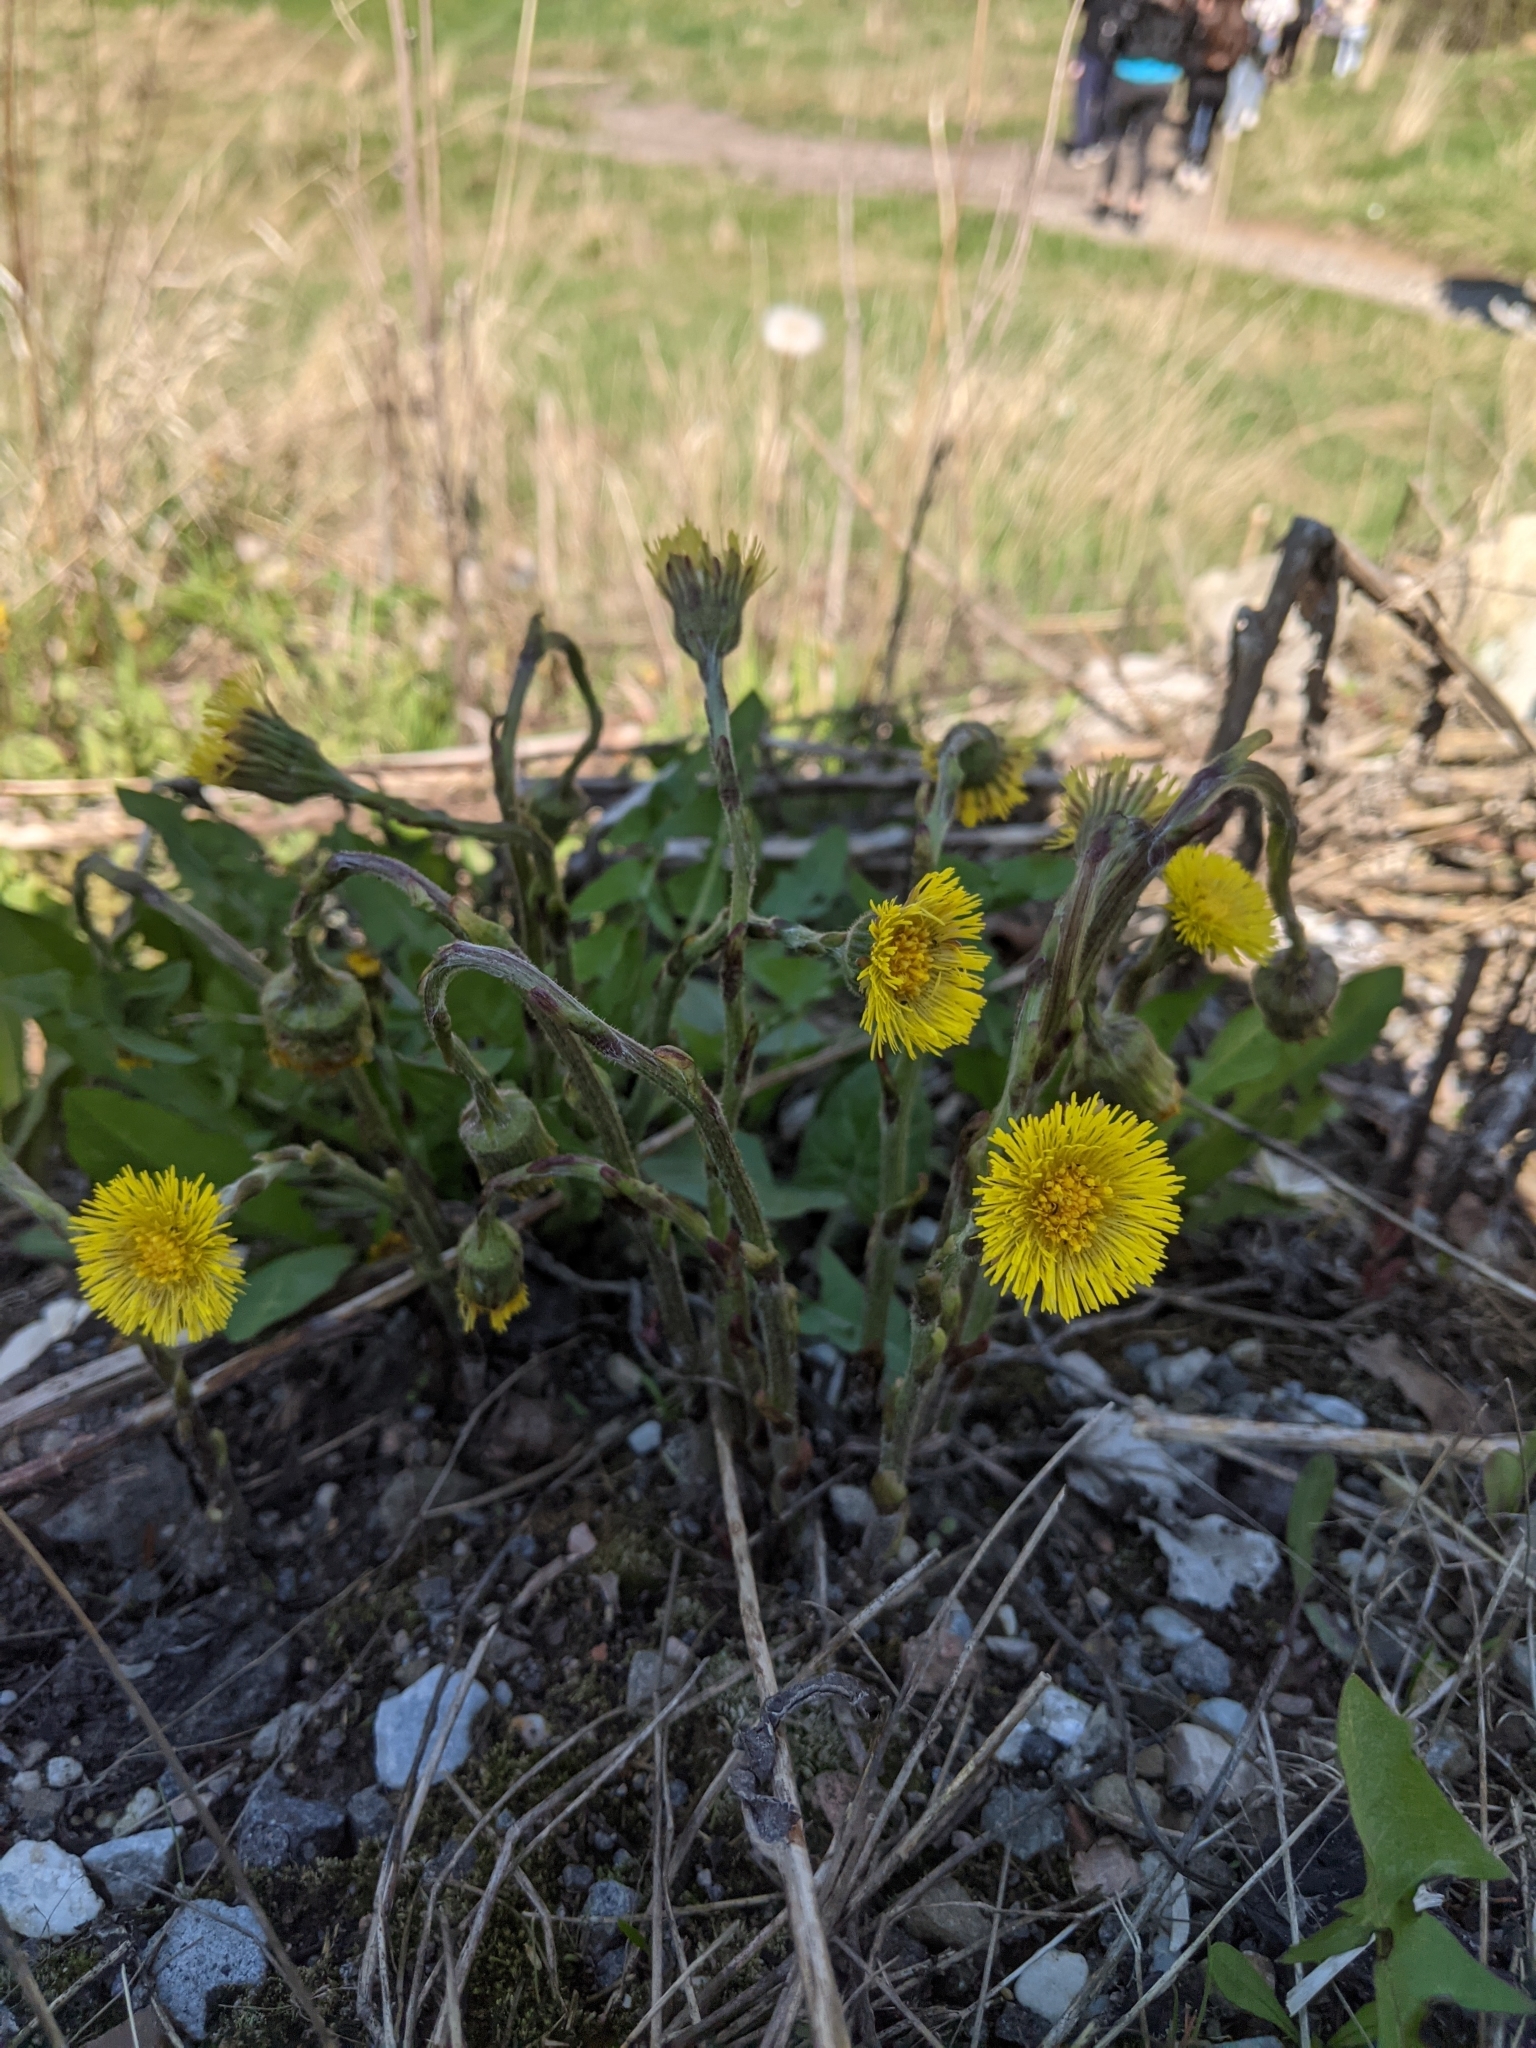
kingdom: Plantae
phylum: Tracheophyta
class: Magnoliopsida
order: Asterales
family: Asteraceae
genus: Tussilago
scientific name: Tussilago farfara
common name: Coltsfoot
